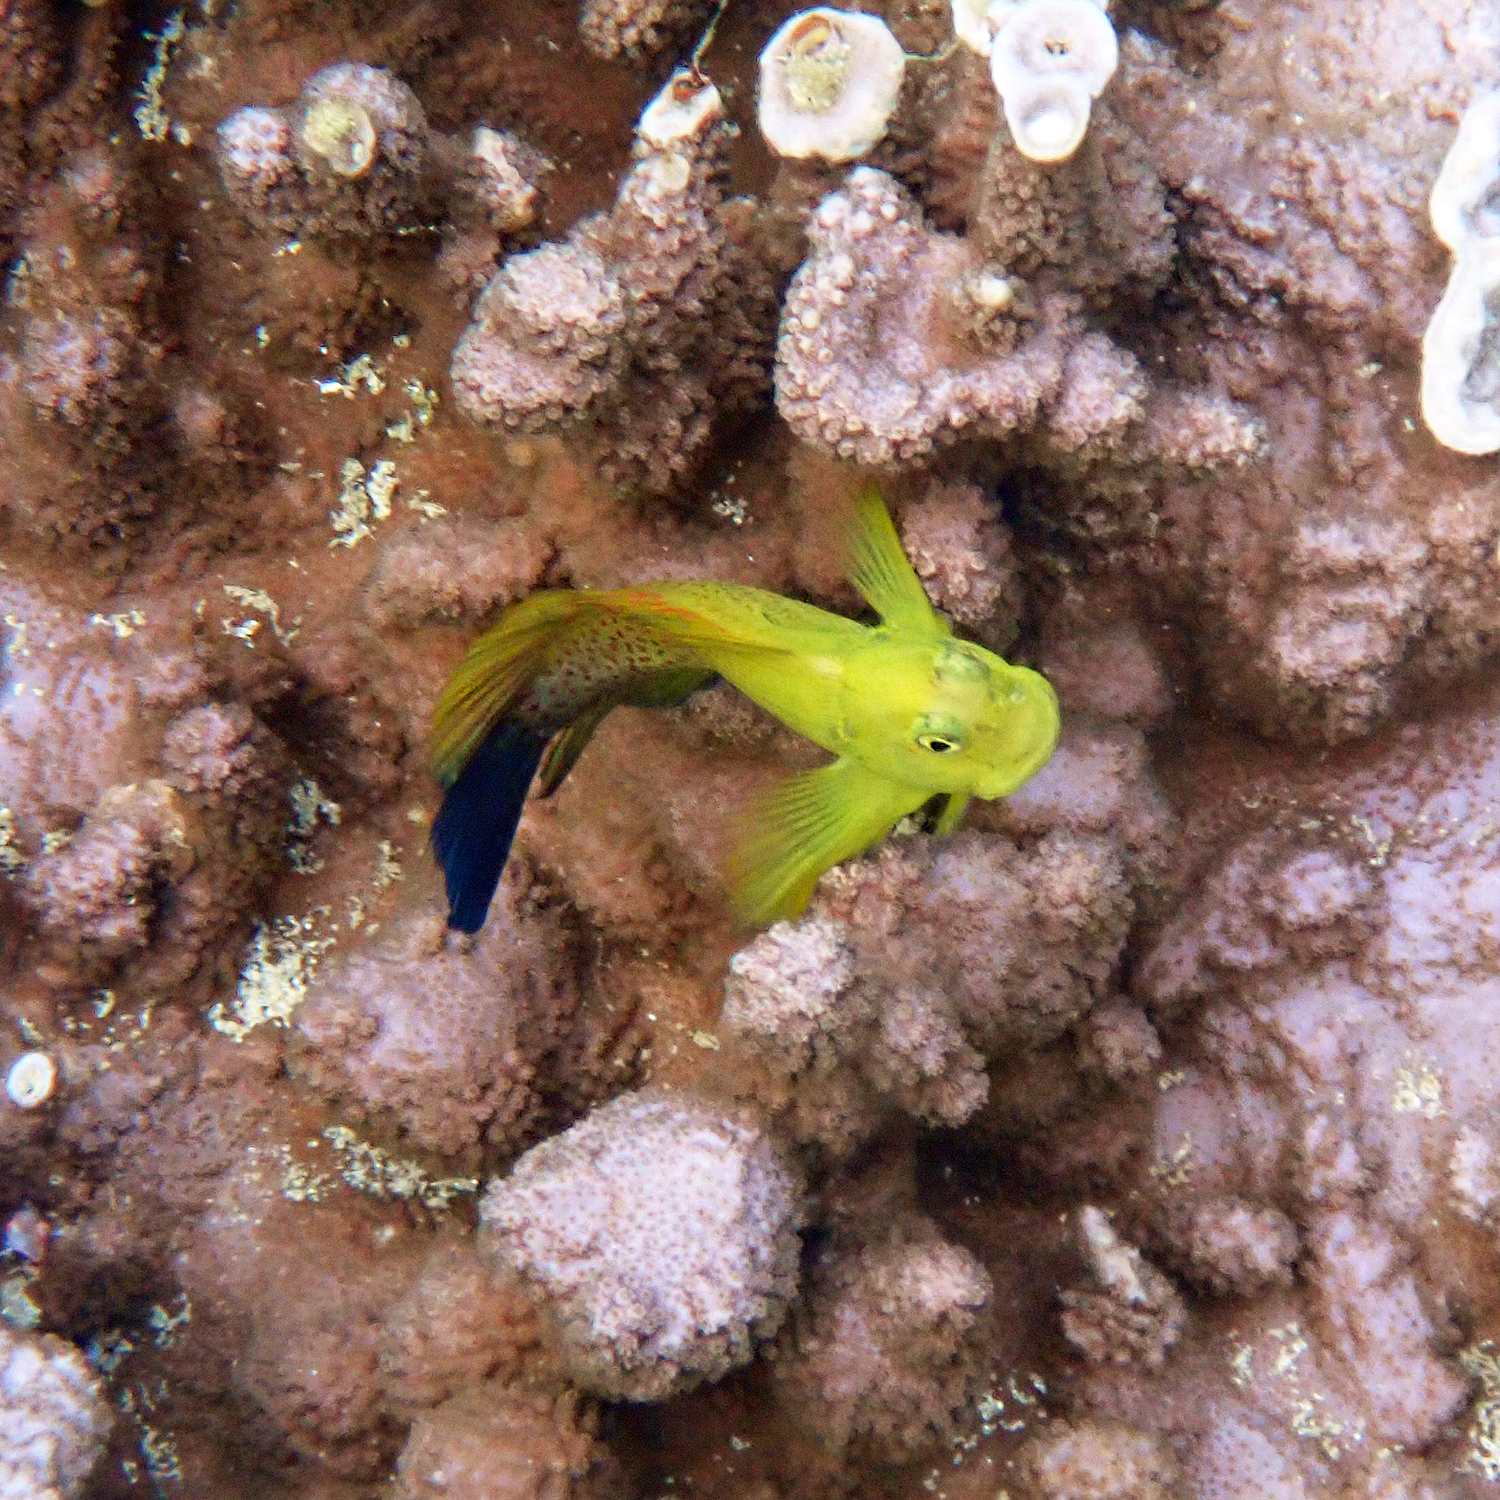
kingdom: Animalia
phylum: Chordata
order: Perciformes
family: Blenniidae
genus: Cirripectes
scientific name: Cirripectes chelomatus
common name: Lady musgrave blenny
